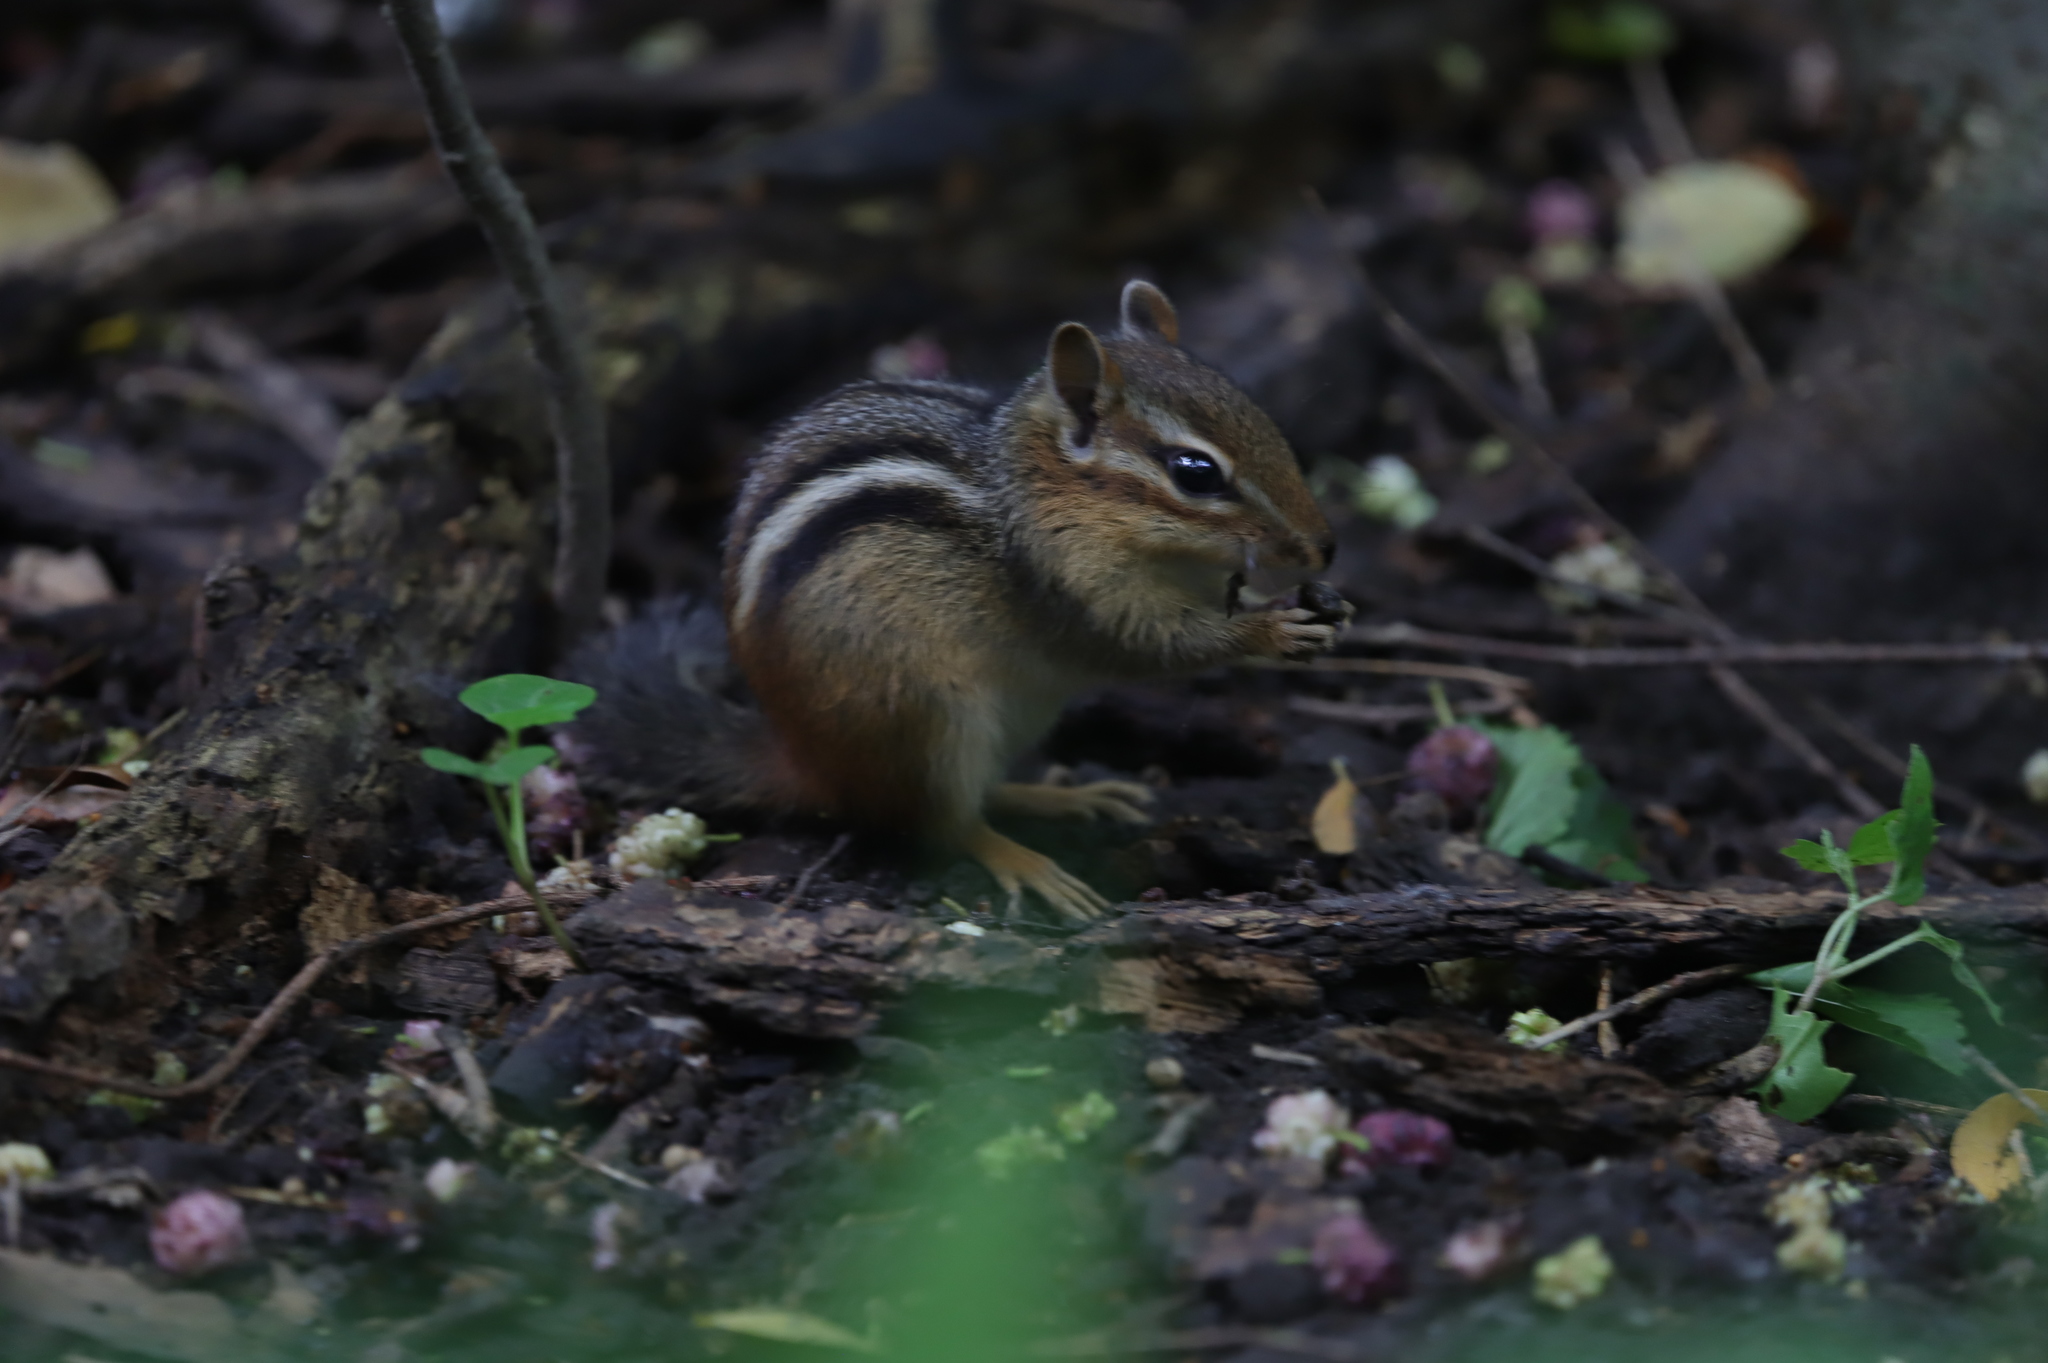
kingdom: Animalia
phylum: Chordata
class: Mammalia
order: Rodentia
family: Sciuridae
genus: Tamias
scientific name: Tamias striatus
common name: Eastern chipmunk
